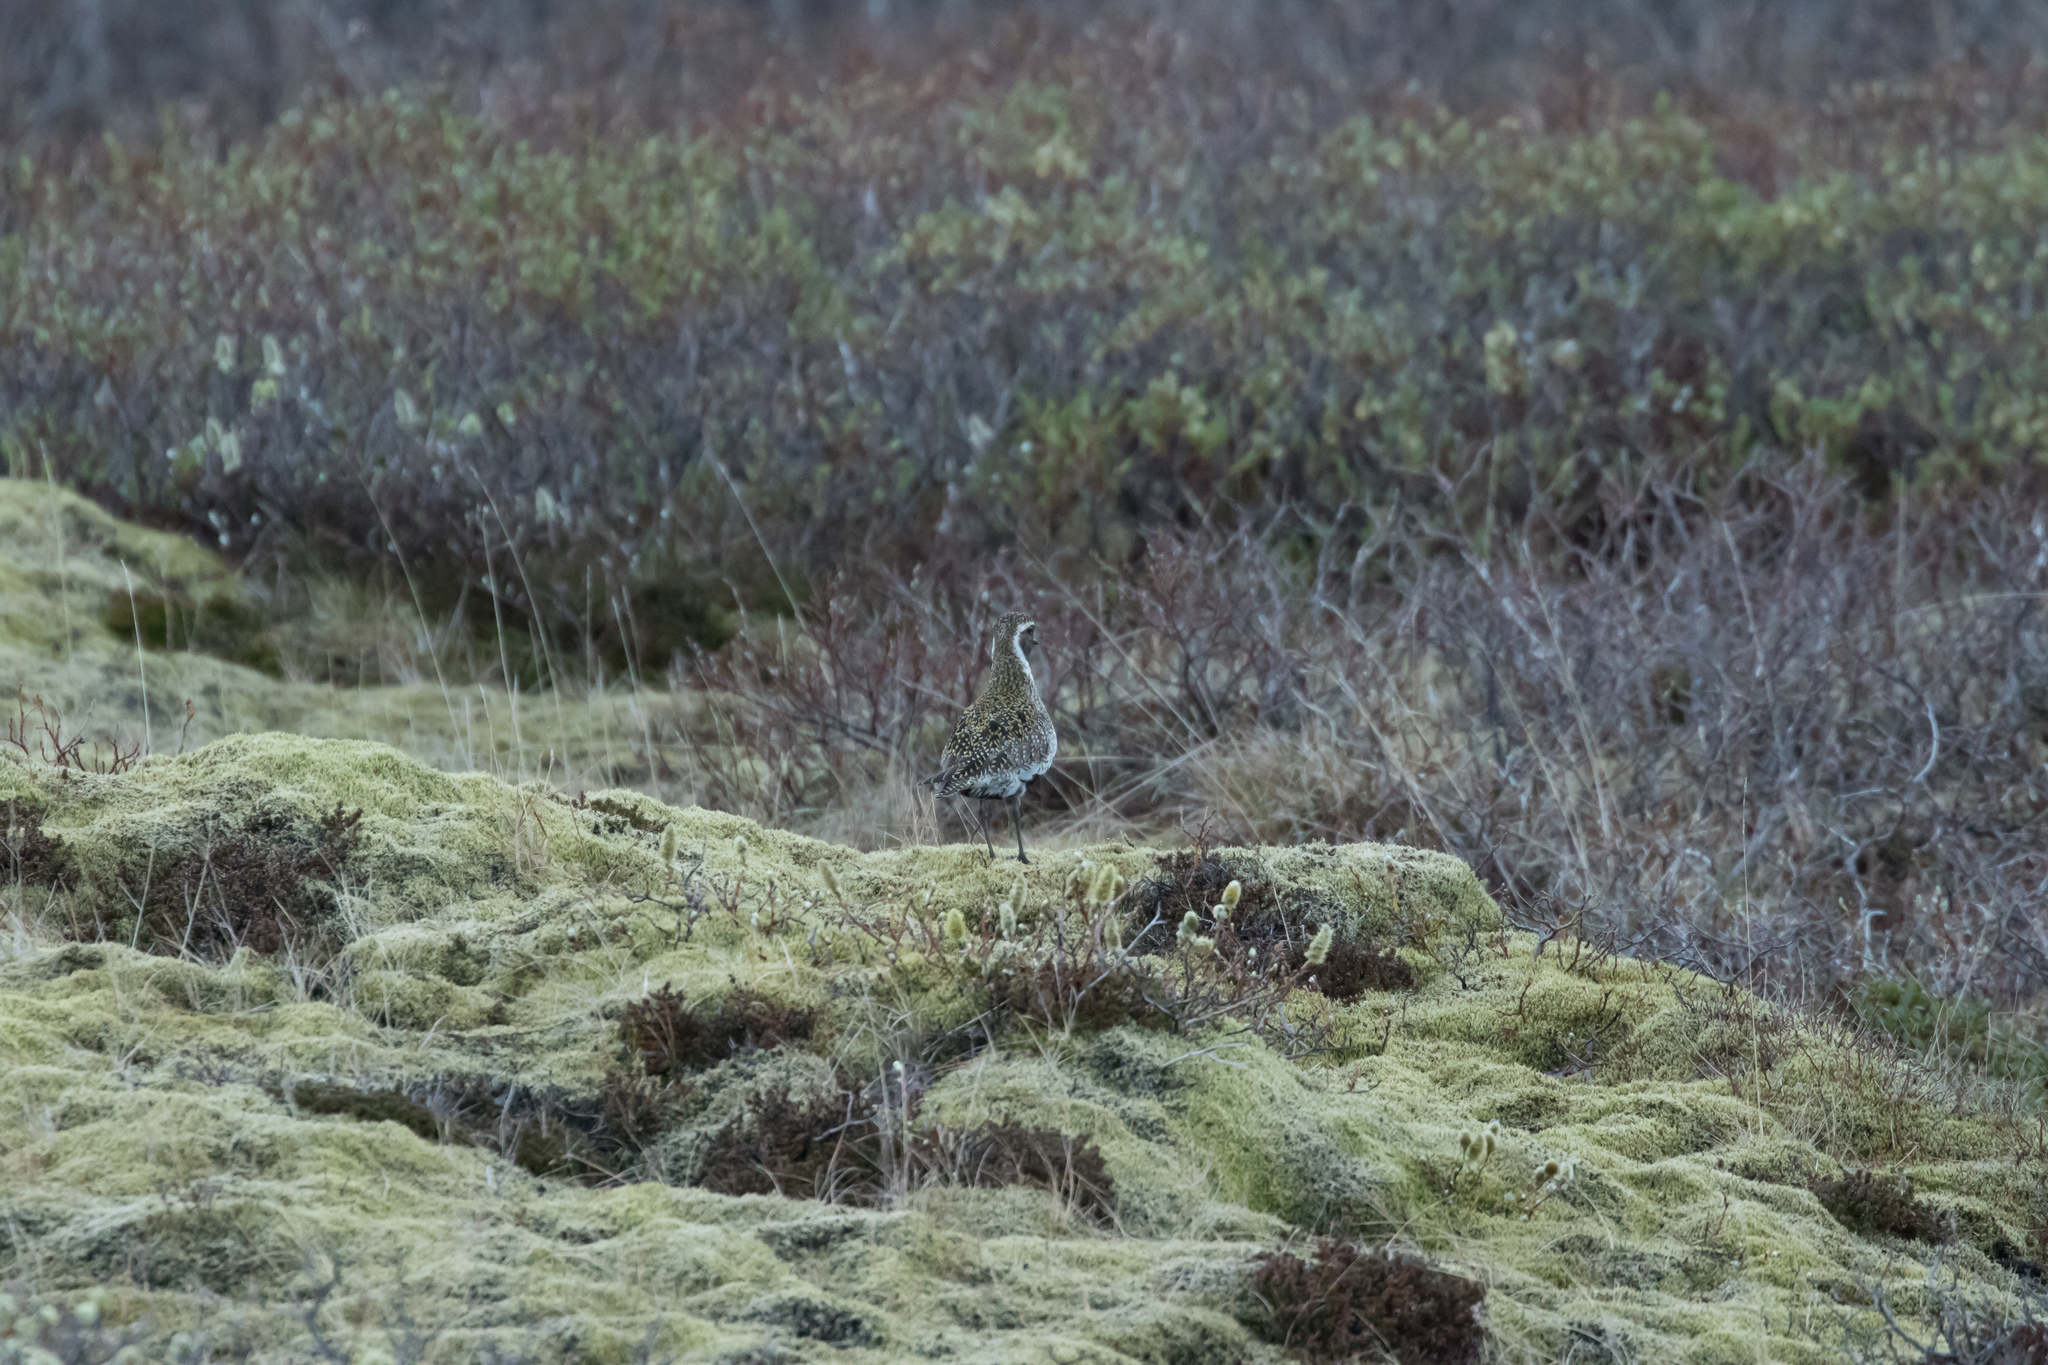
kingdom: Animalia
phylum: Chordata
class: Aves
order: Charadriiformes
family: Charadriidae
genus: Pluvialis
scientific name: Pluvialis apricaria
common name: European golden plover
